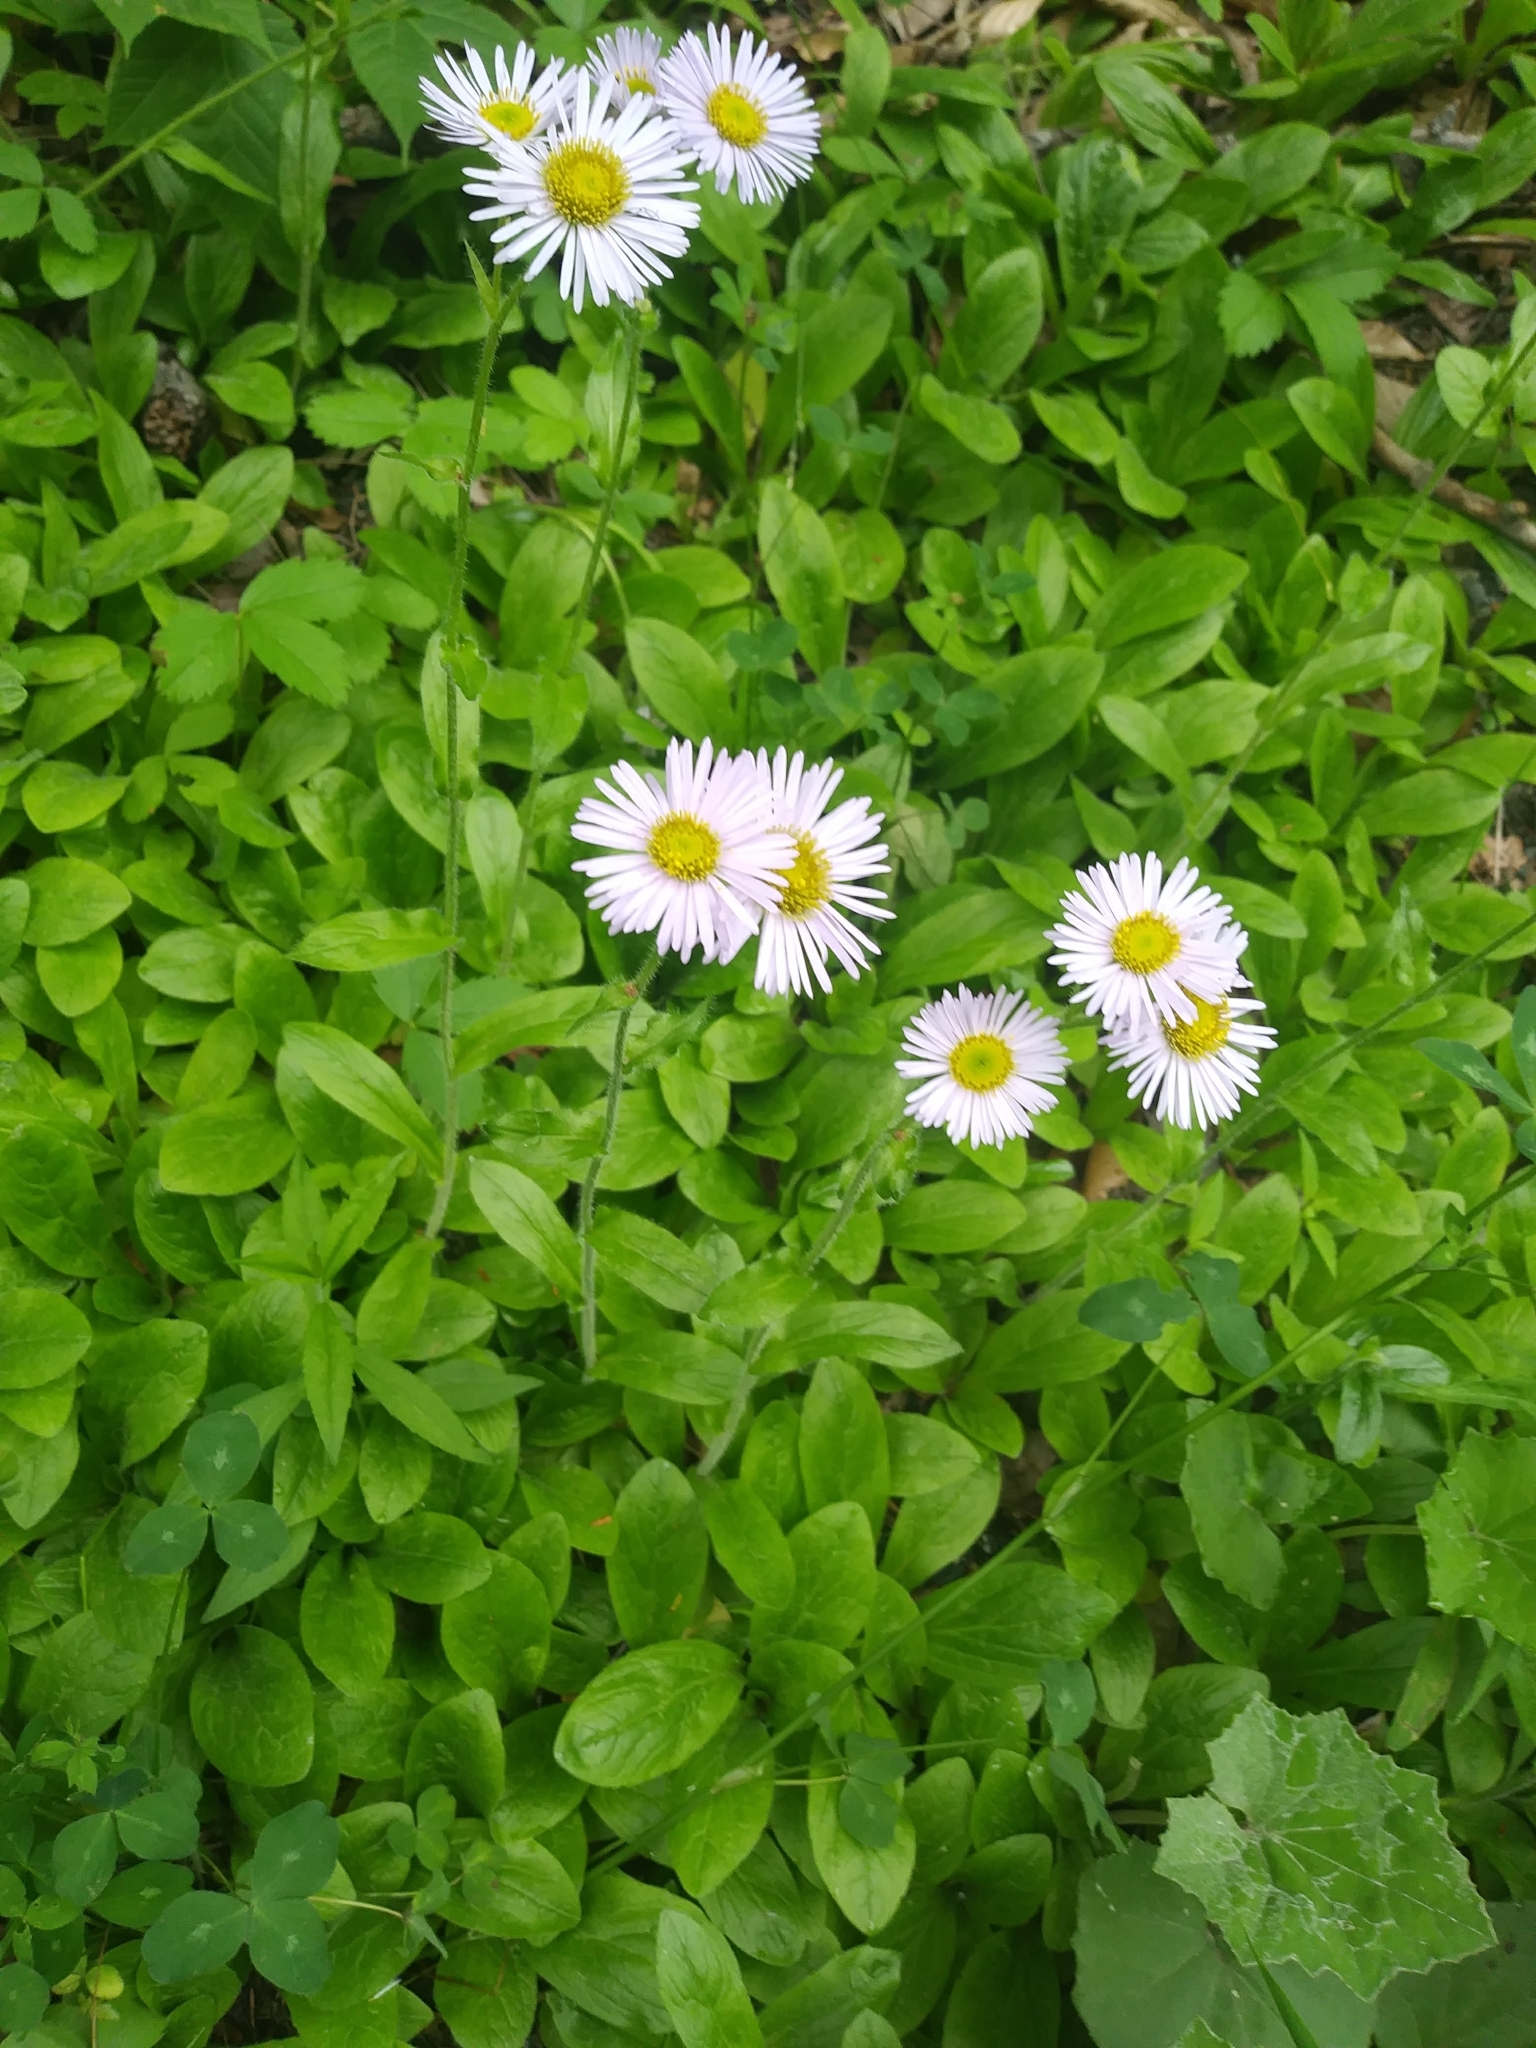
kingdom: Plantae
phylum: Tracheophyta
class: Magnoliopsida
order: Asterales
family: Asteraceae
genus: Erigeron
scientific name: Erigeron pulchellus
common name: Hairy fleabane
